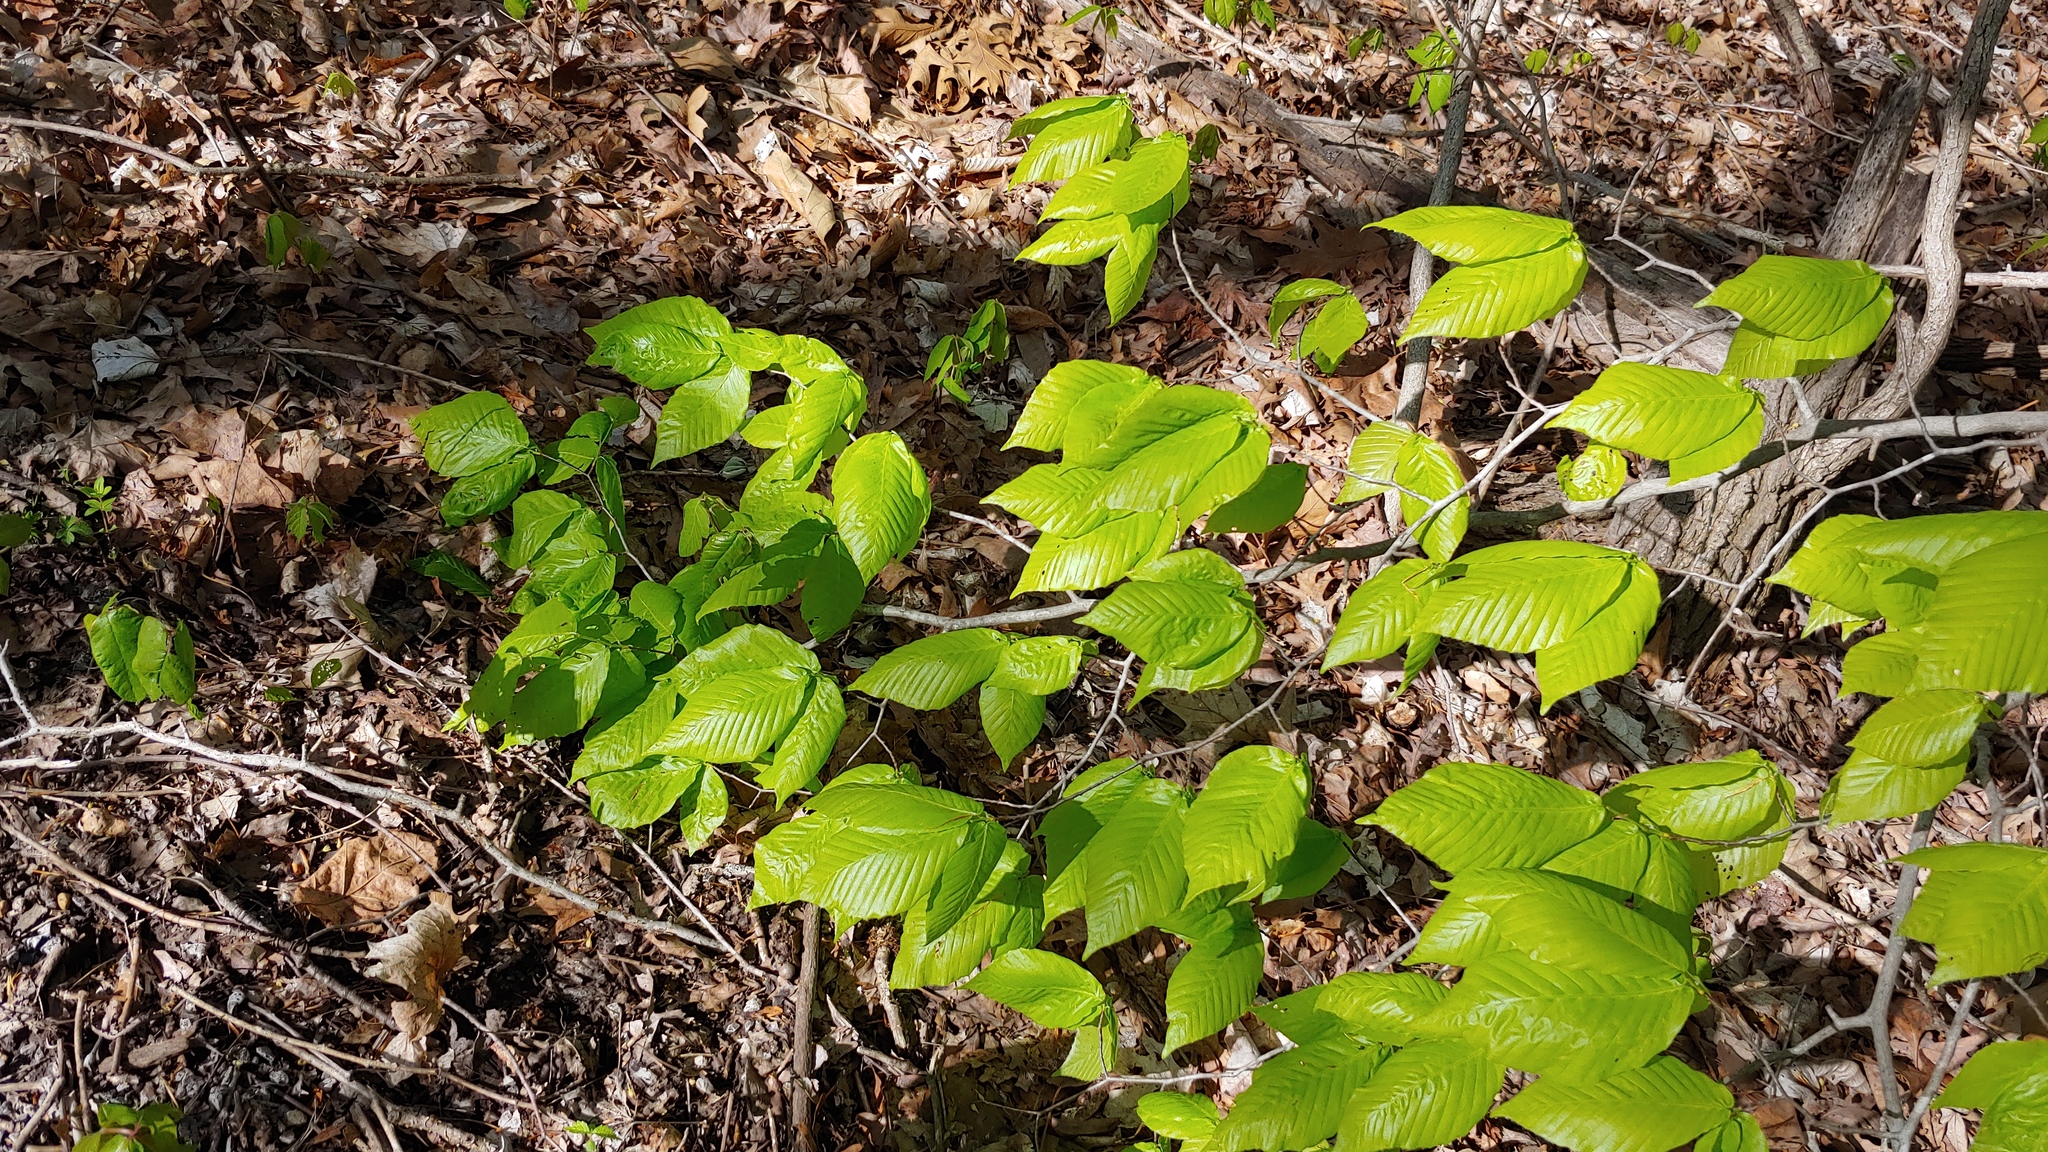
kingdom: Plantae
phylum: Tracheophyta
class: Magnoliopsida
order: Fagales
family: Fagaceae
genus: Fagus
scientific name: Fagus grandifolia
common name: American beech
